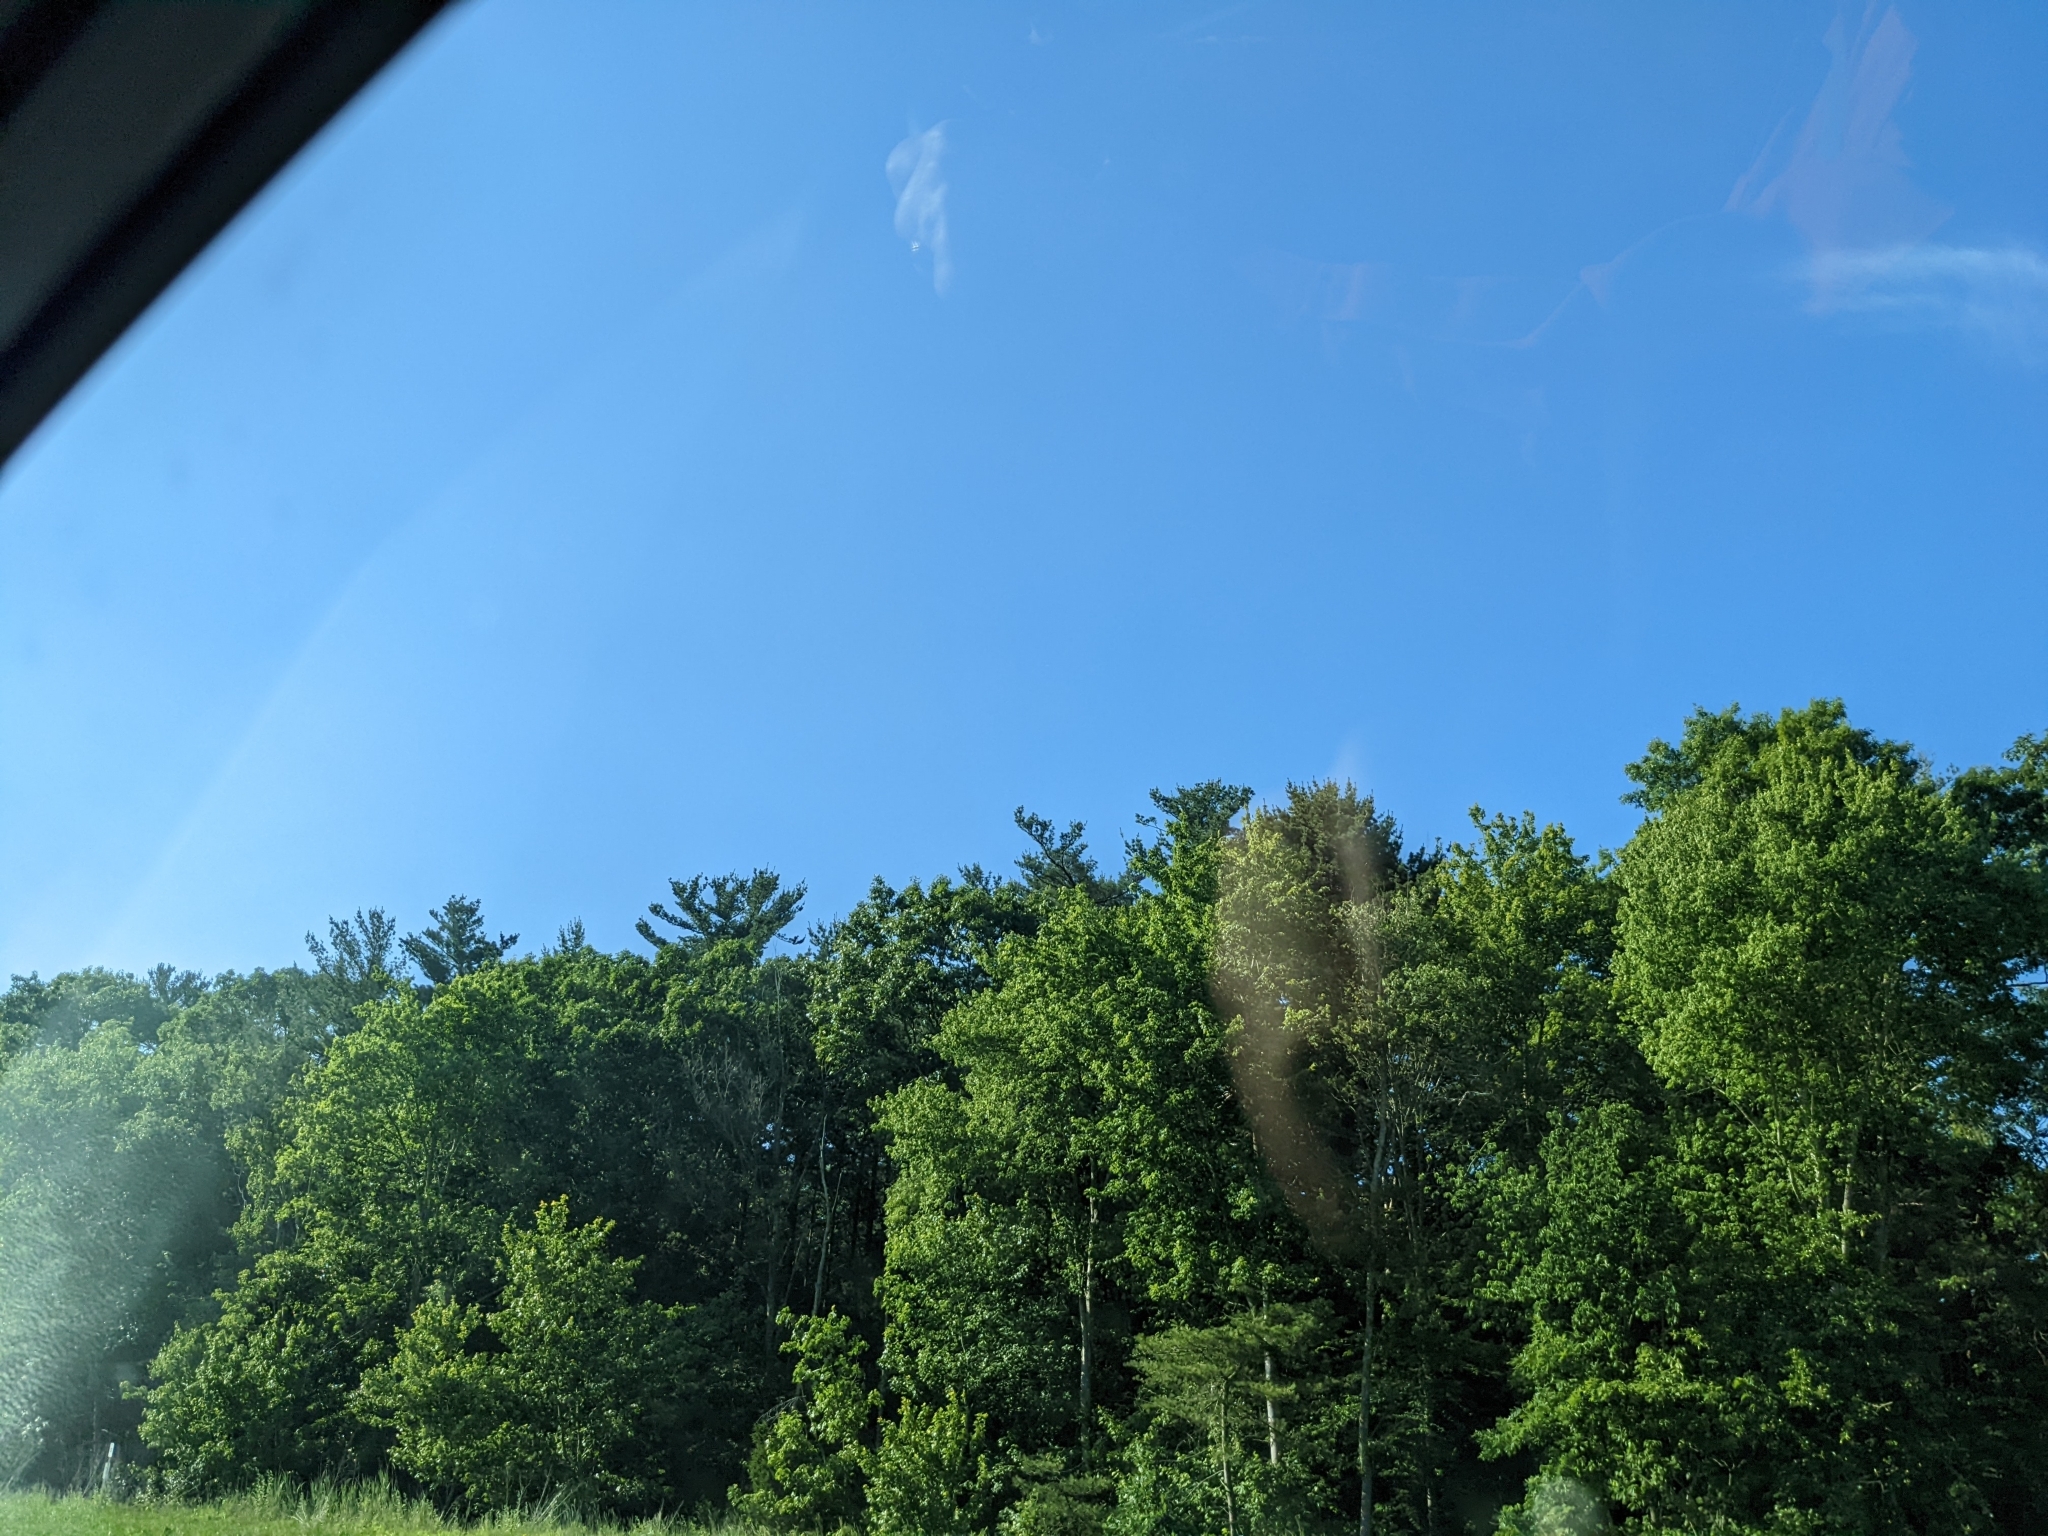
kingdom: Plantae
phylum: Tracheophyta
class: Pinopsida
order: Pinales
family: Pinaceae
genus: Pinus
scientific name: Pinus strobus
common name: Weymouth pine
